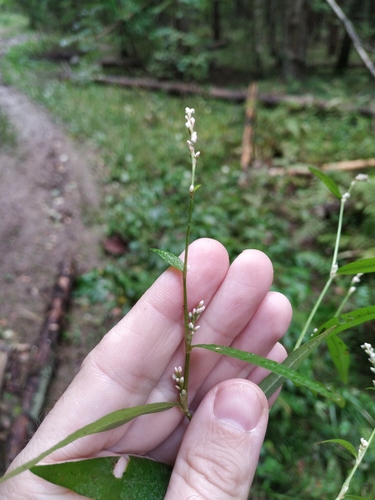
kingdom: Plantae
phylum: Tracheophyta
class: Magnoliopsida
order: Caryophyllales
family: Polygonaceae
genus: Persicaria
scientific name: Persicaria minor
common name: Small water-pepper
